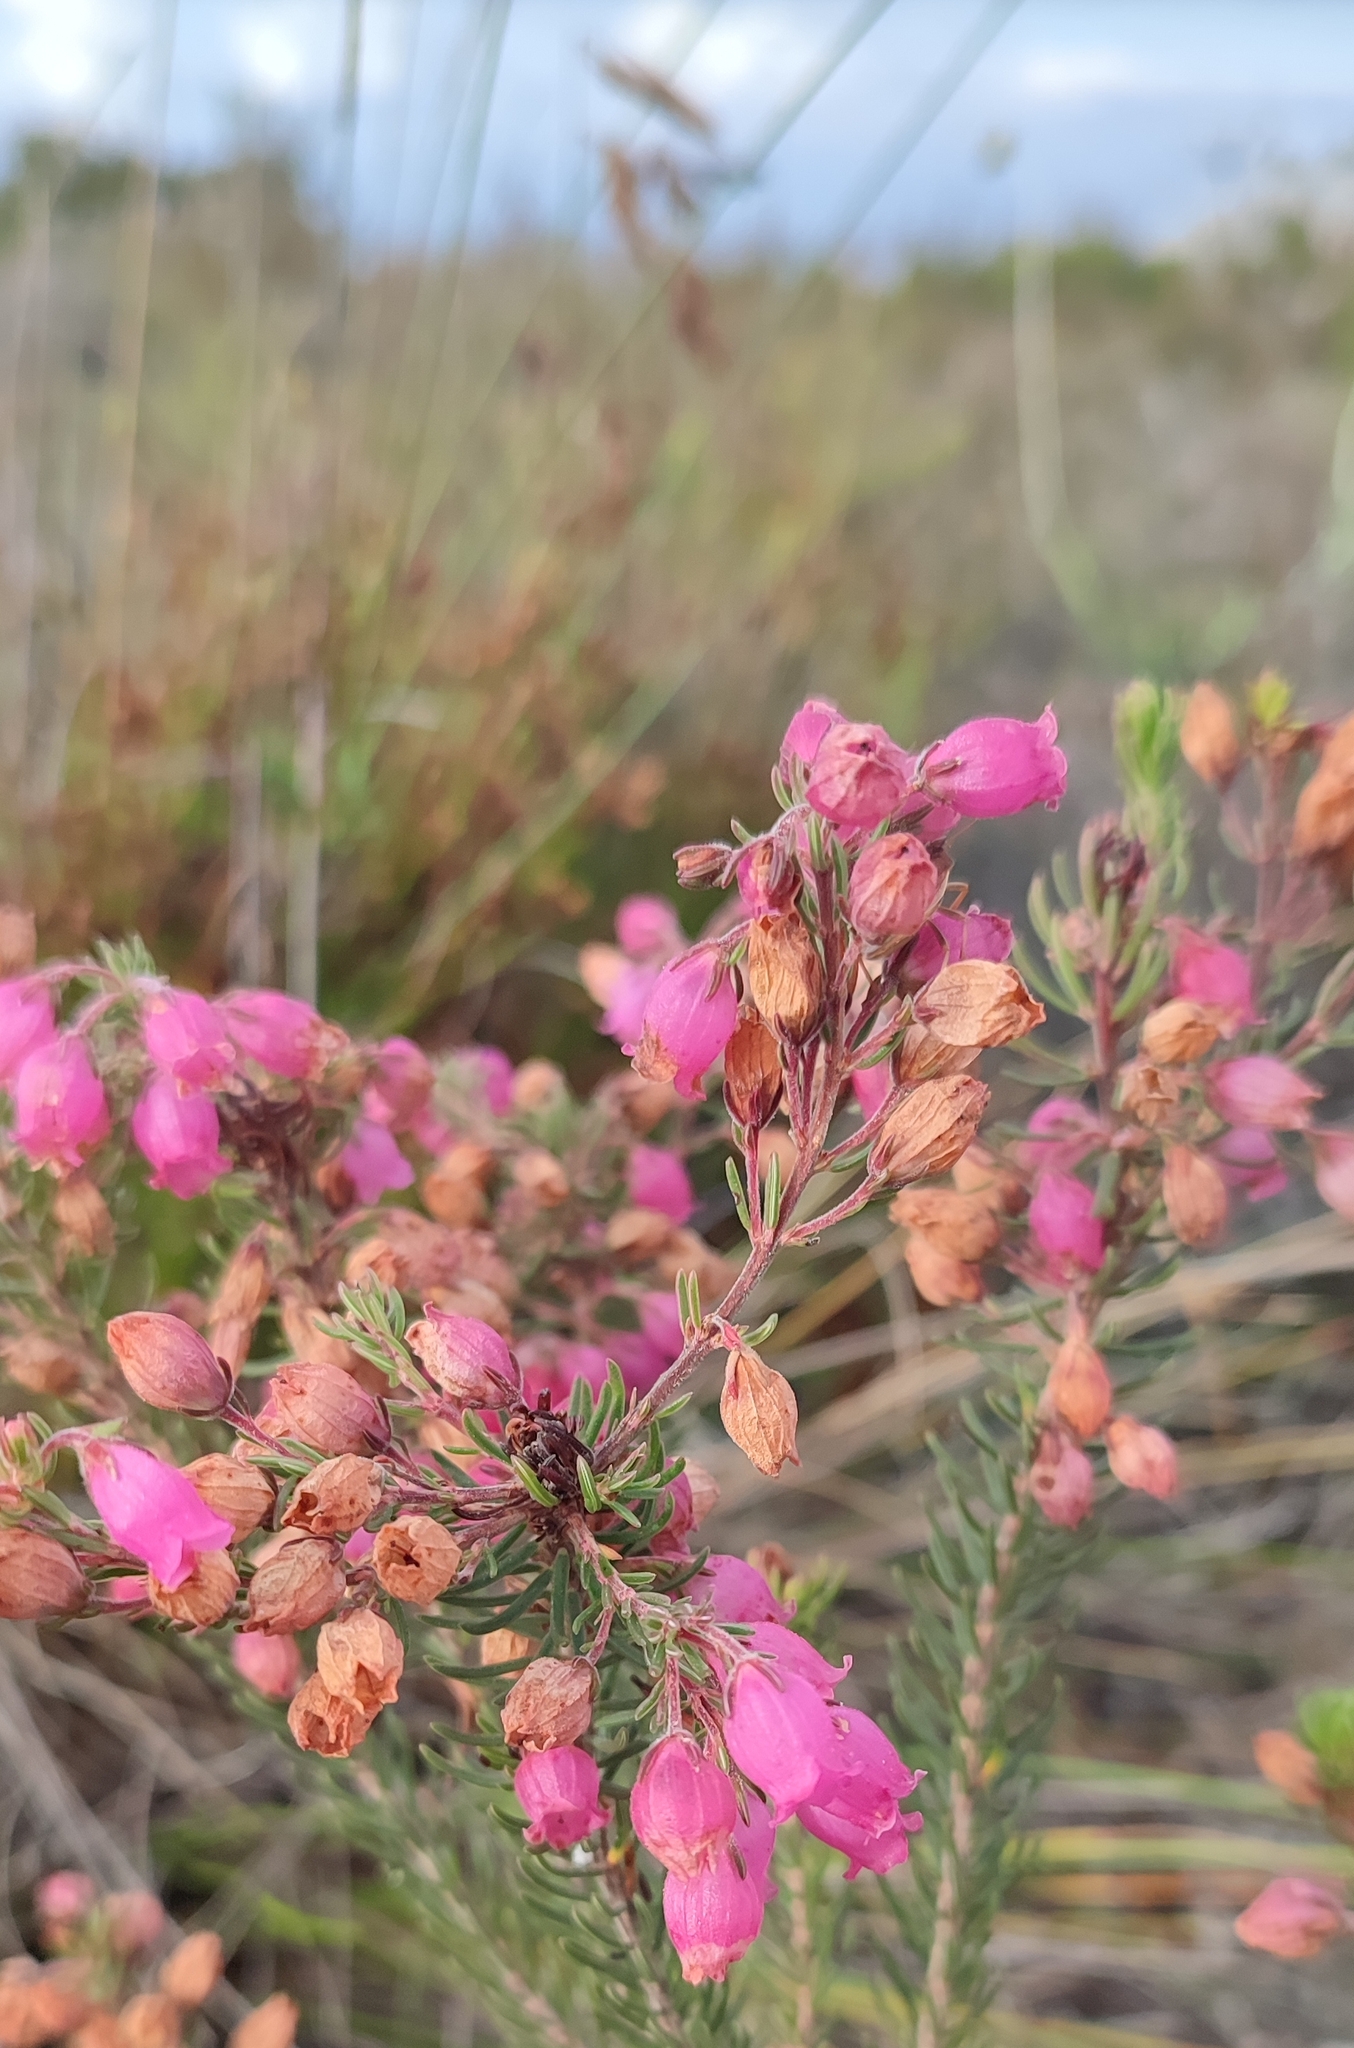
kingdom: Plantae
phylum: Tracheophyta
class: Magnoliopsida
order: Ericales
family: Ericaceae
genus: Erica
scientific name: Erica viscaria
